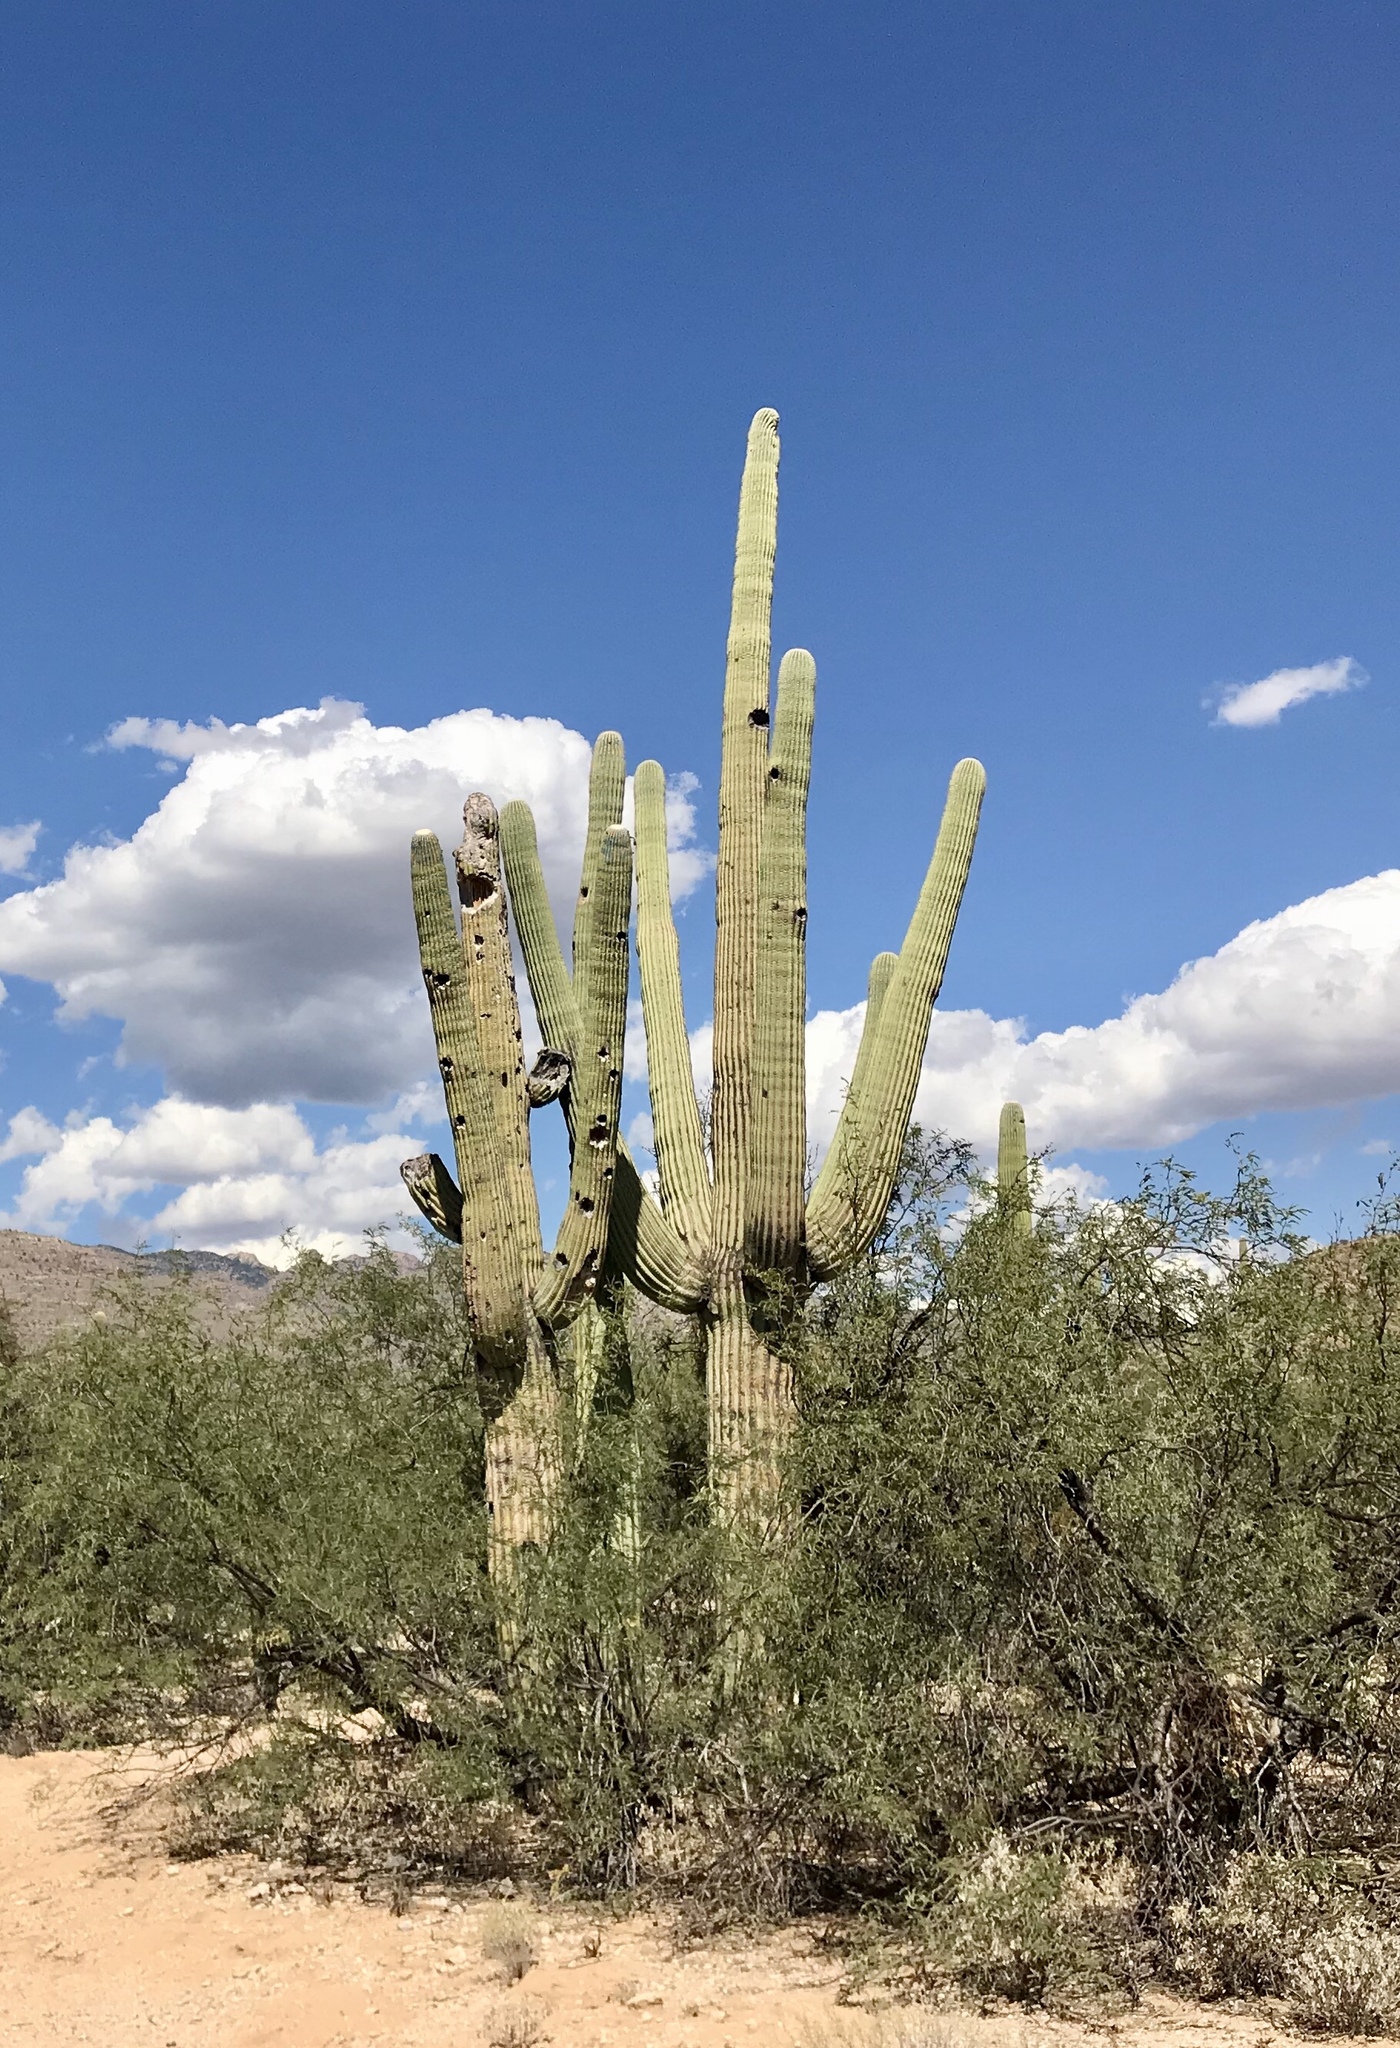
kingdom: Plantae
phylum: Tracheophyta
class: Magnoliopsida
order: Caryophyllales
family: Cactaceae
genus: Carnegiea
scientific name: Carnegiea gigantea
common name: Saguaro
